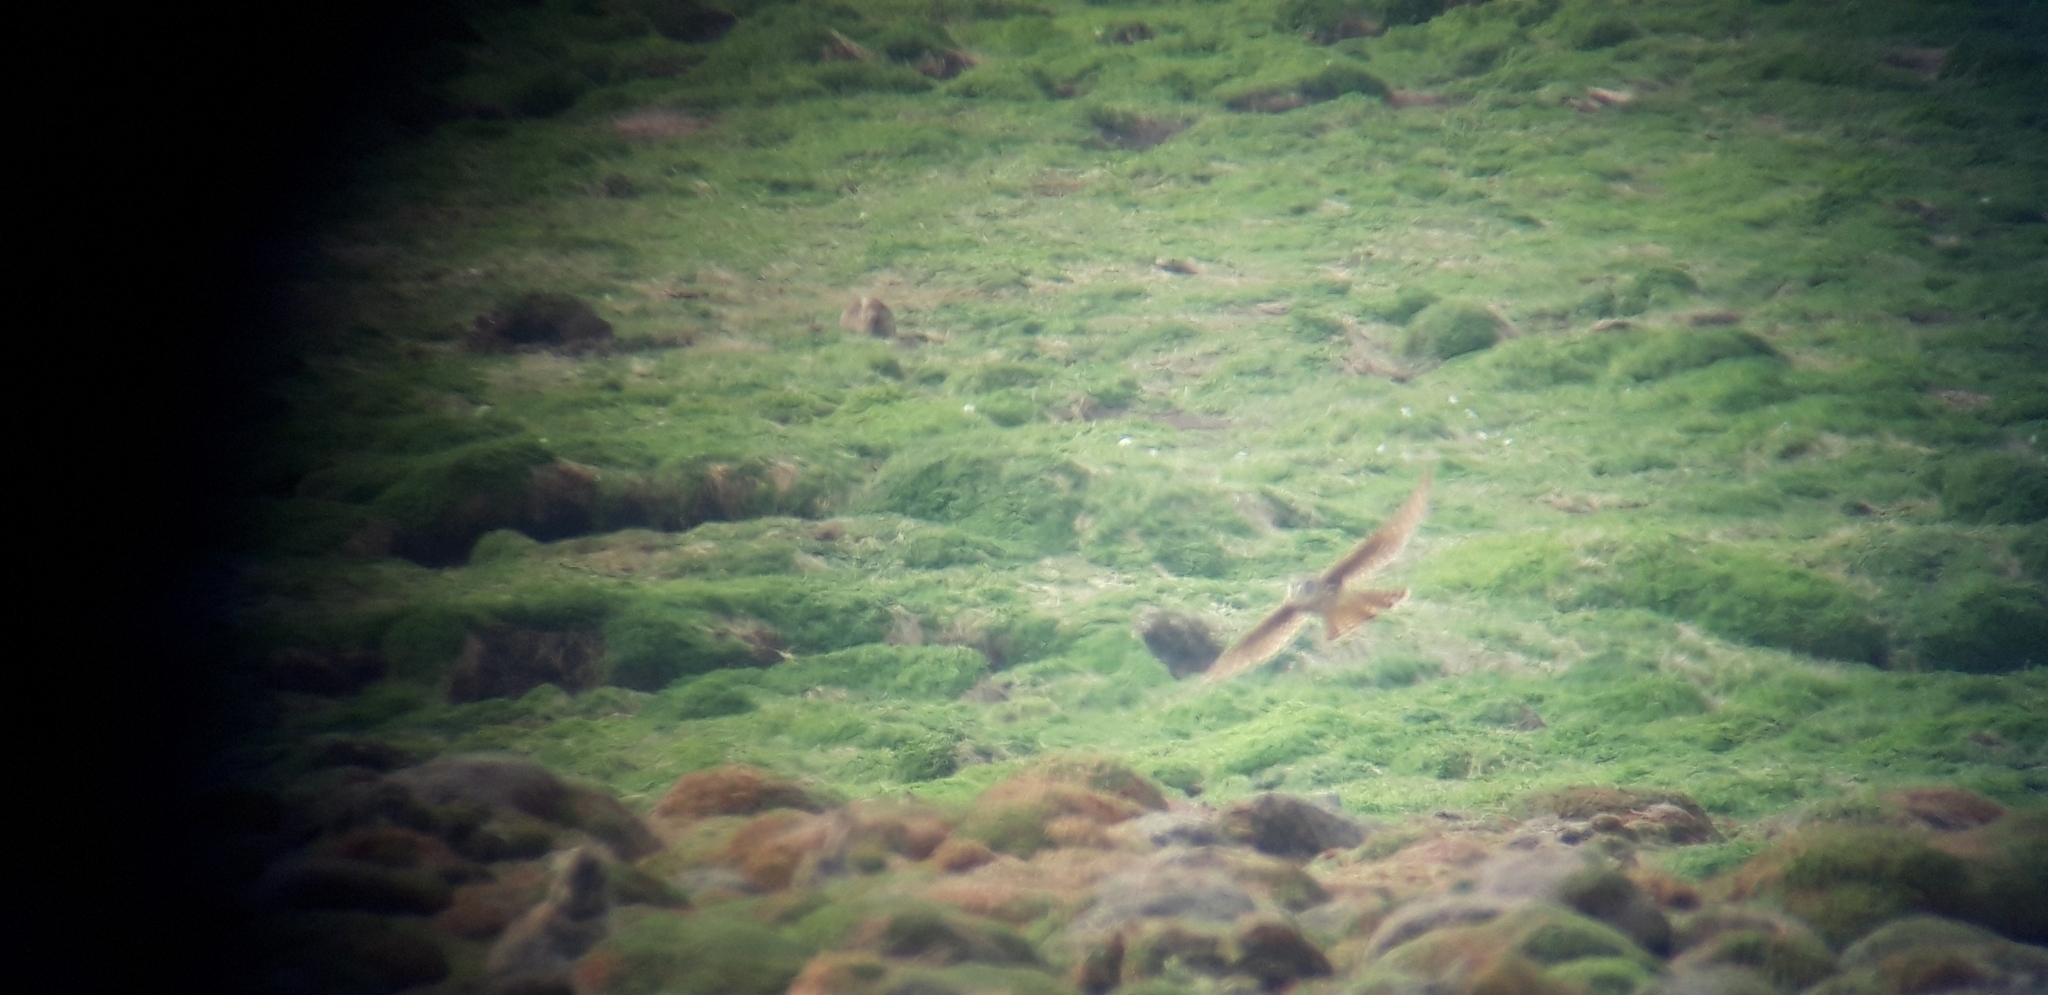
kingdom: Animalia
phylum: Chordata
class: Aves
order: Falconiformes
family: Falconidae
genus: Falco
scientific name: Falco columbarius
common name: Merlin
